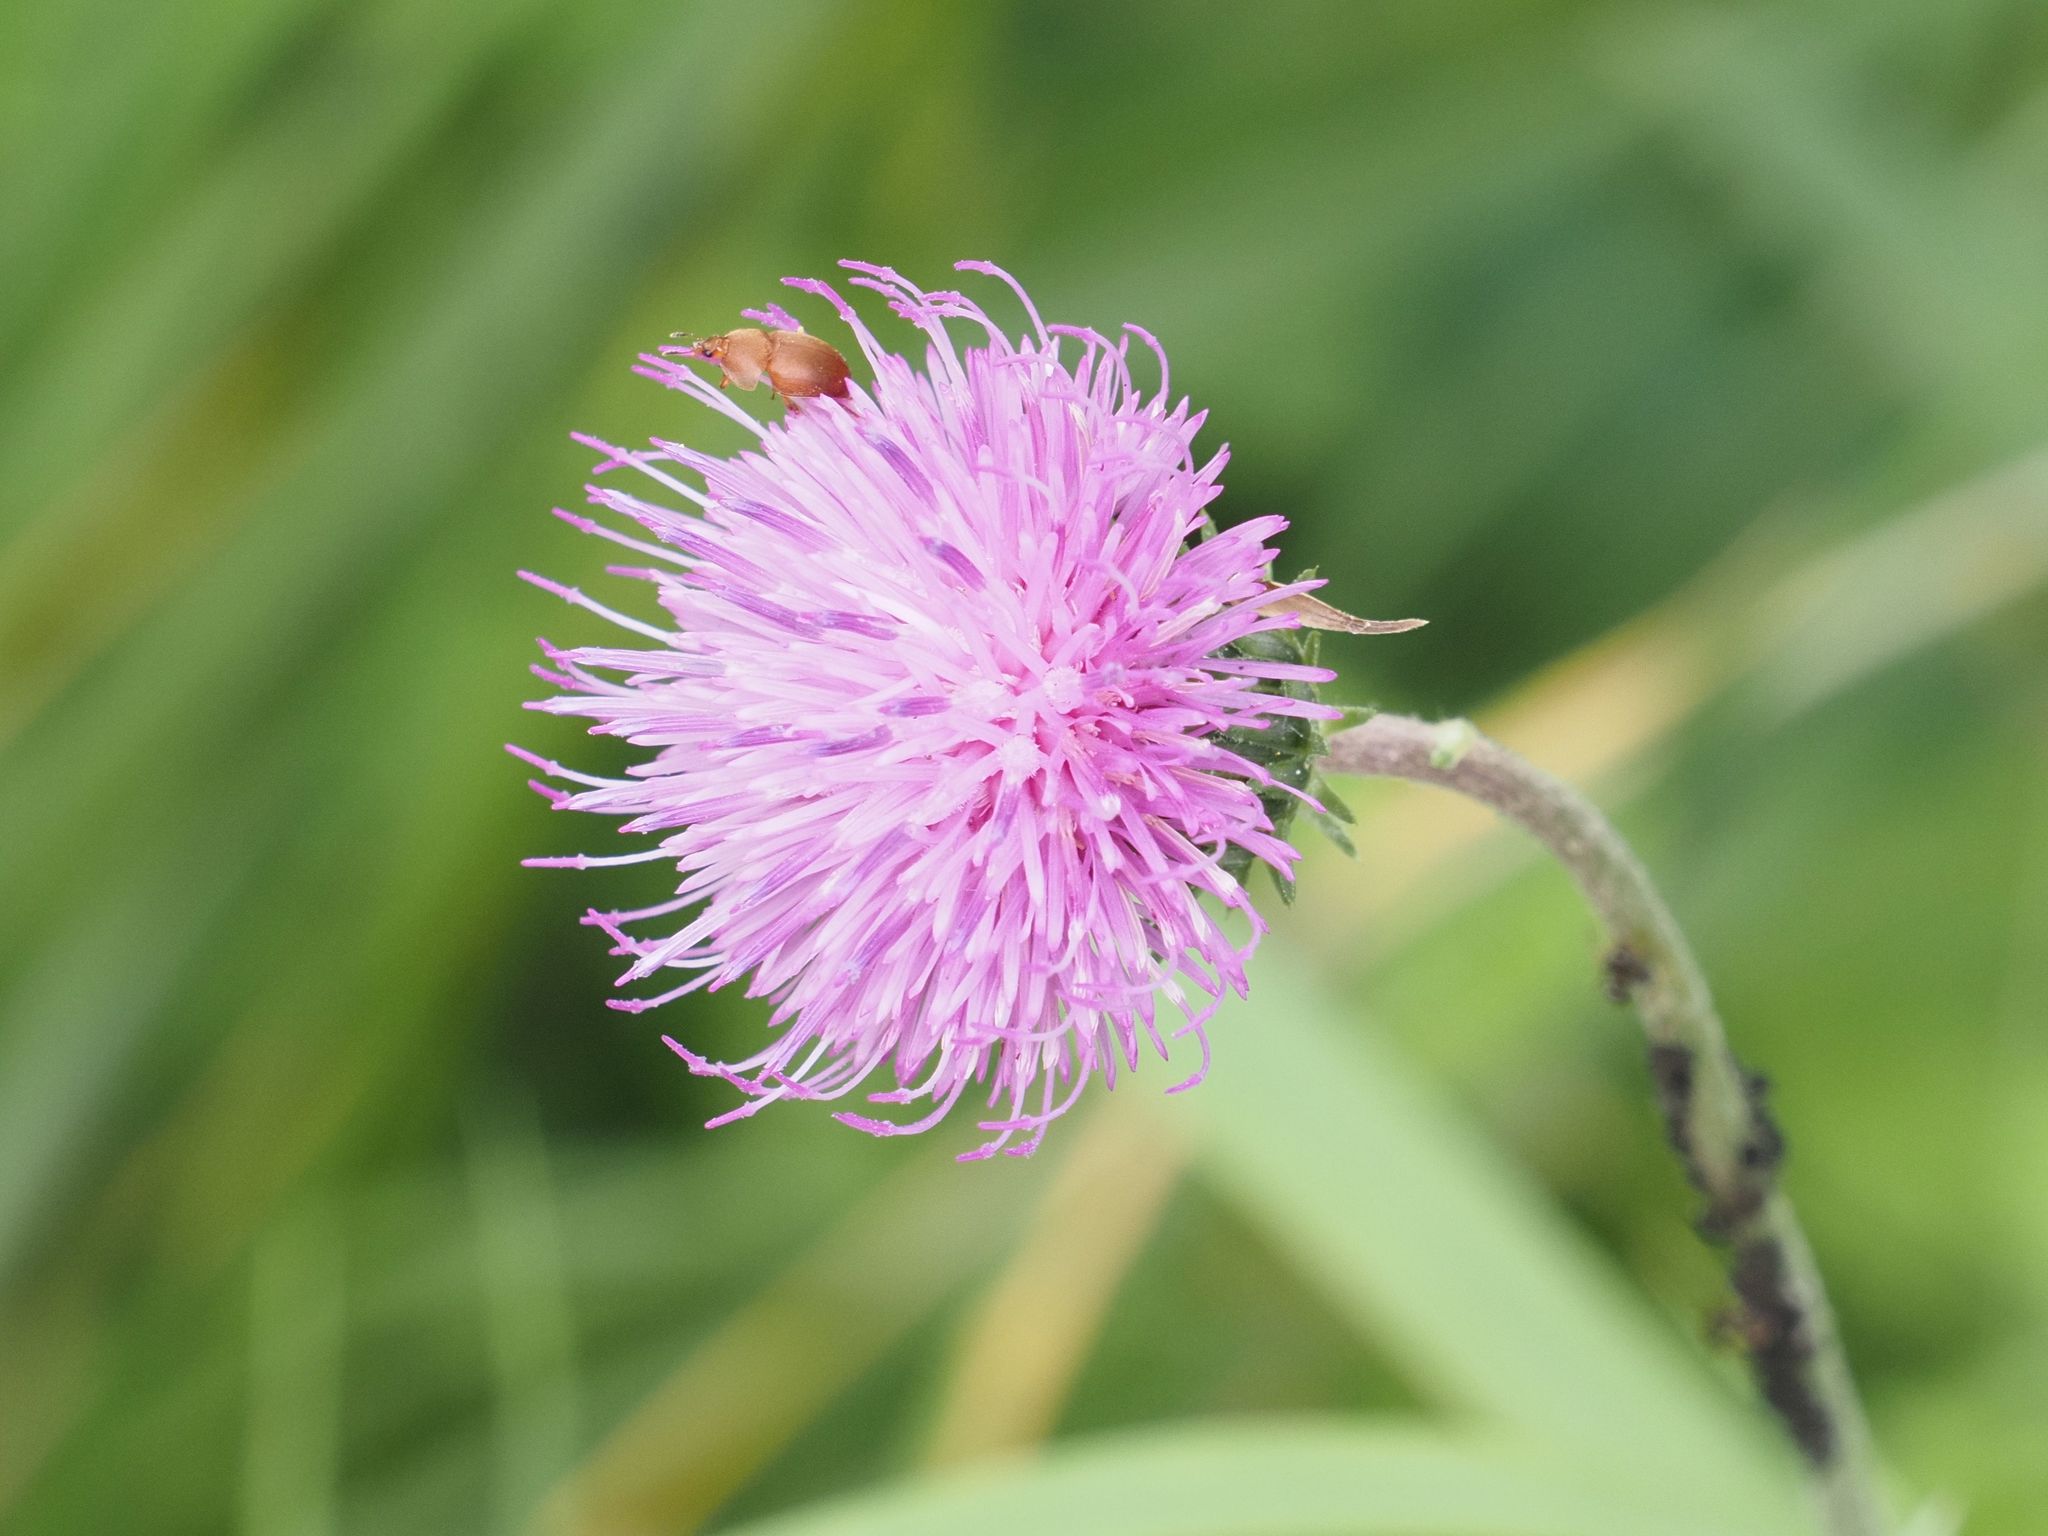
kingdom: Plantae
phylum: Tracheophyta
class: Magnoliopsida
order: Asterales
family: Asteraceae
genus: Carduus
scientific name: Carduus defloratus
